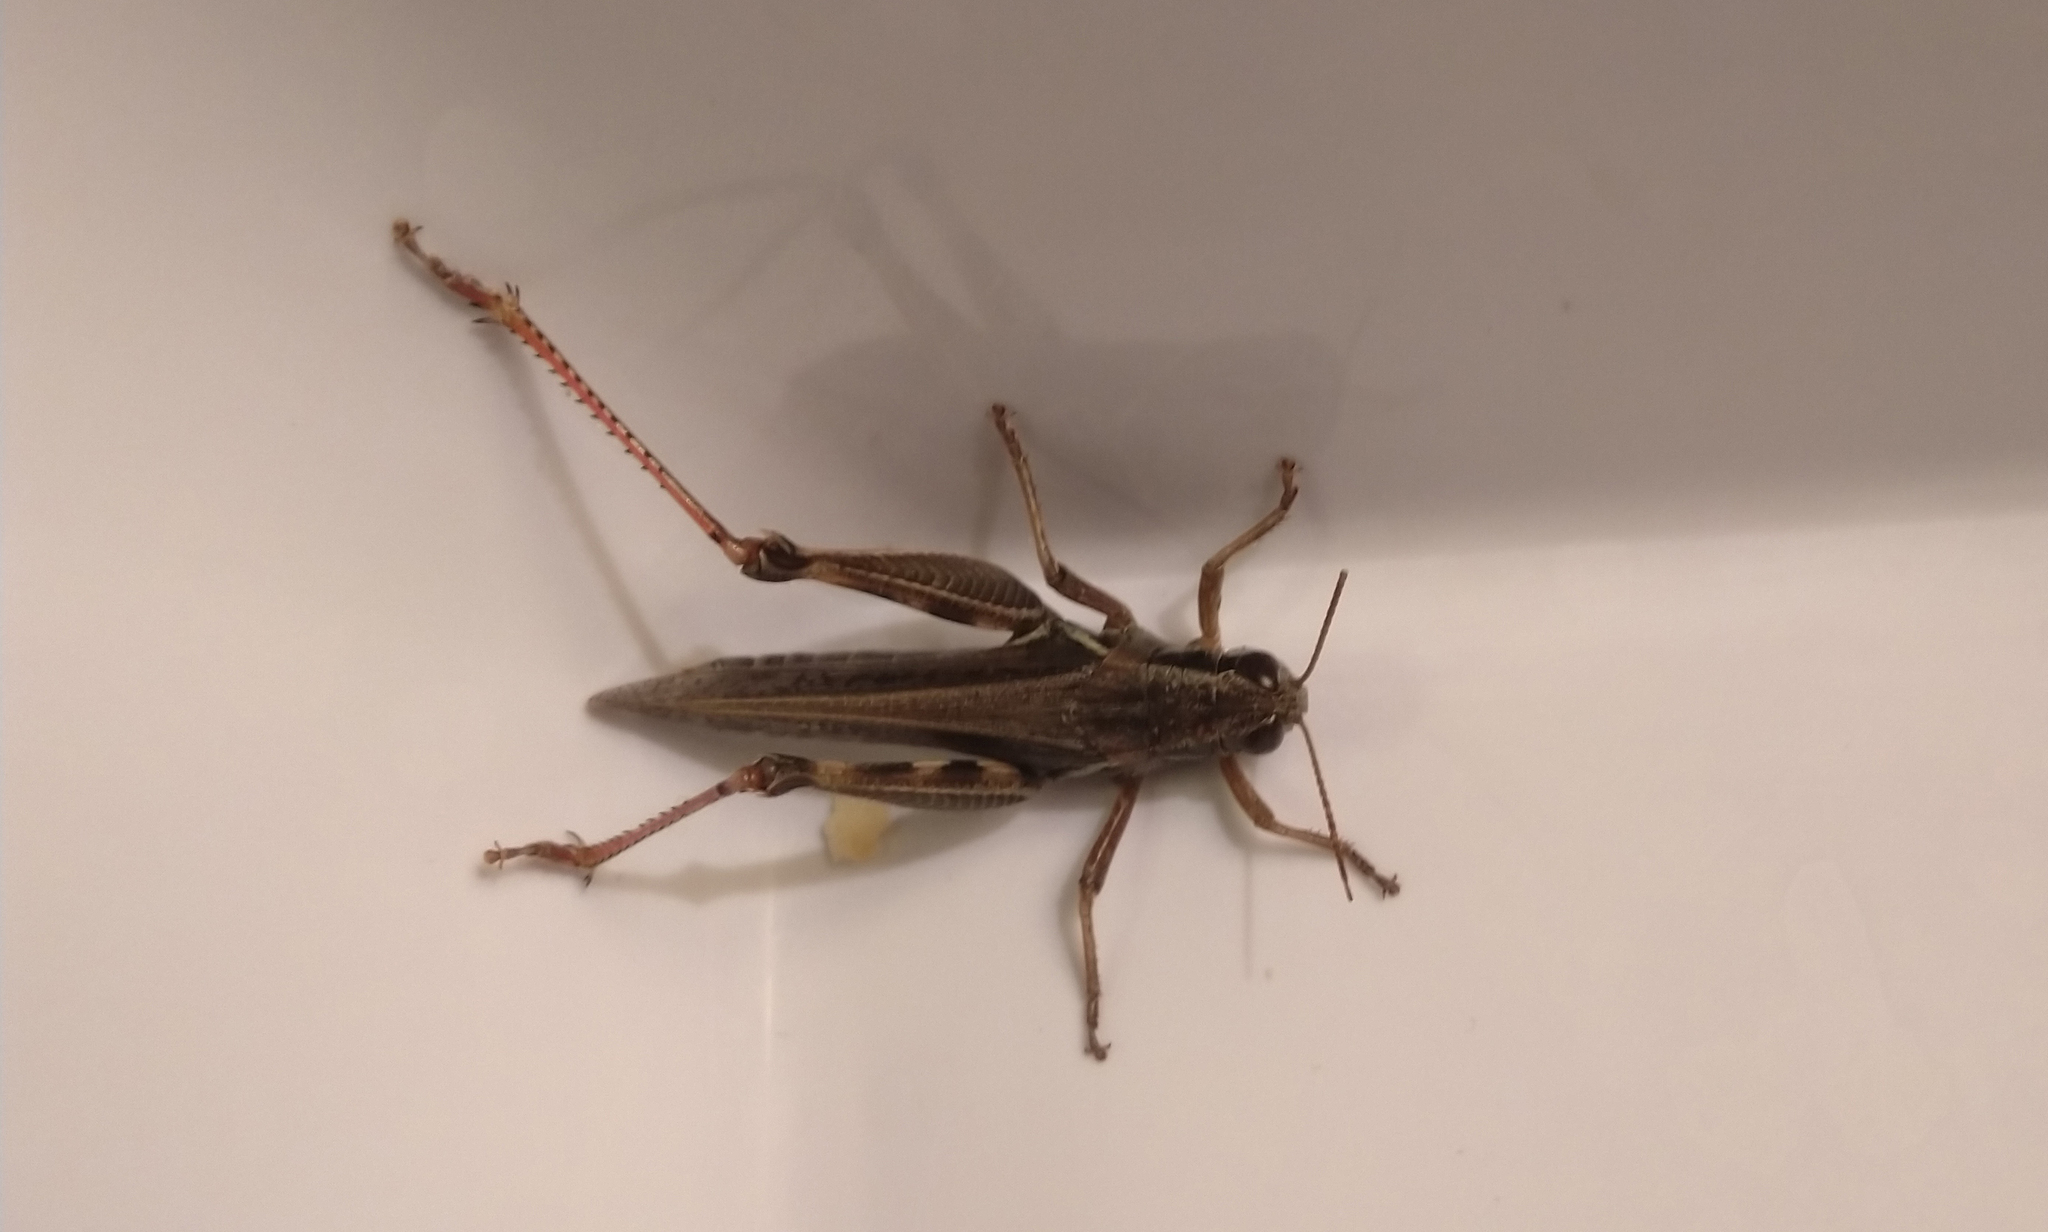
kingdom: Animalia
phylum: Arthropoda
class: Insecta
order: Orthoptera
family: Acrididae
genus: Melanoplus
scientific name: Melanoplus femurrubrum
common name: Red-legged grasshopper
